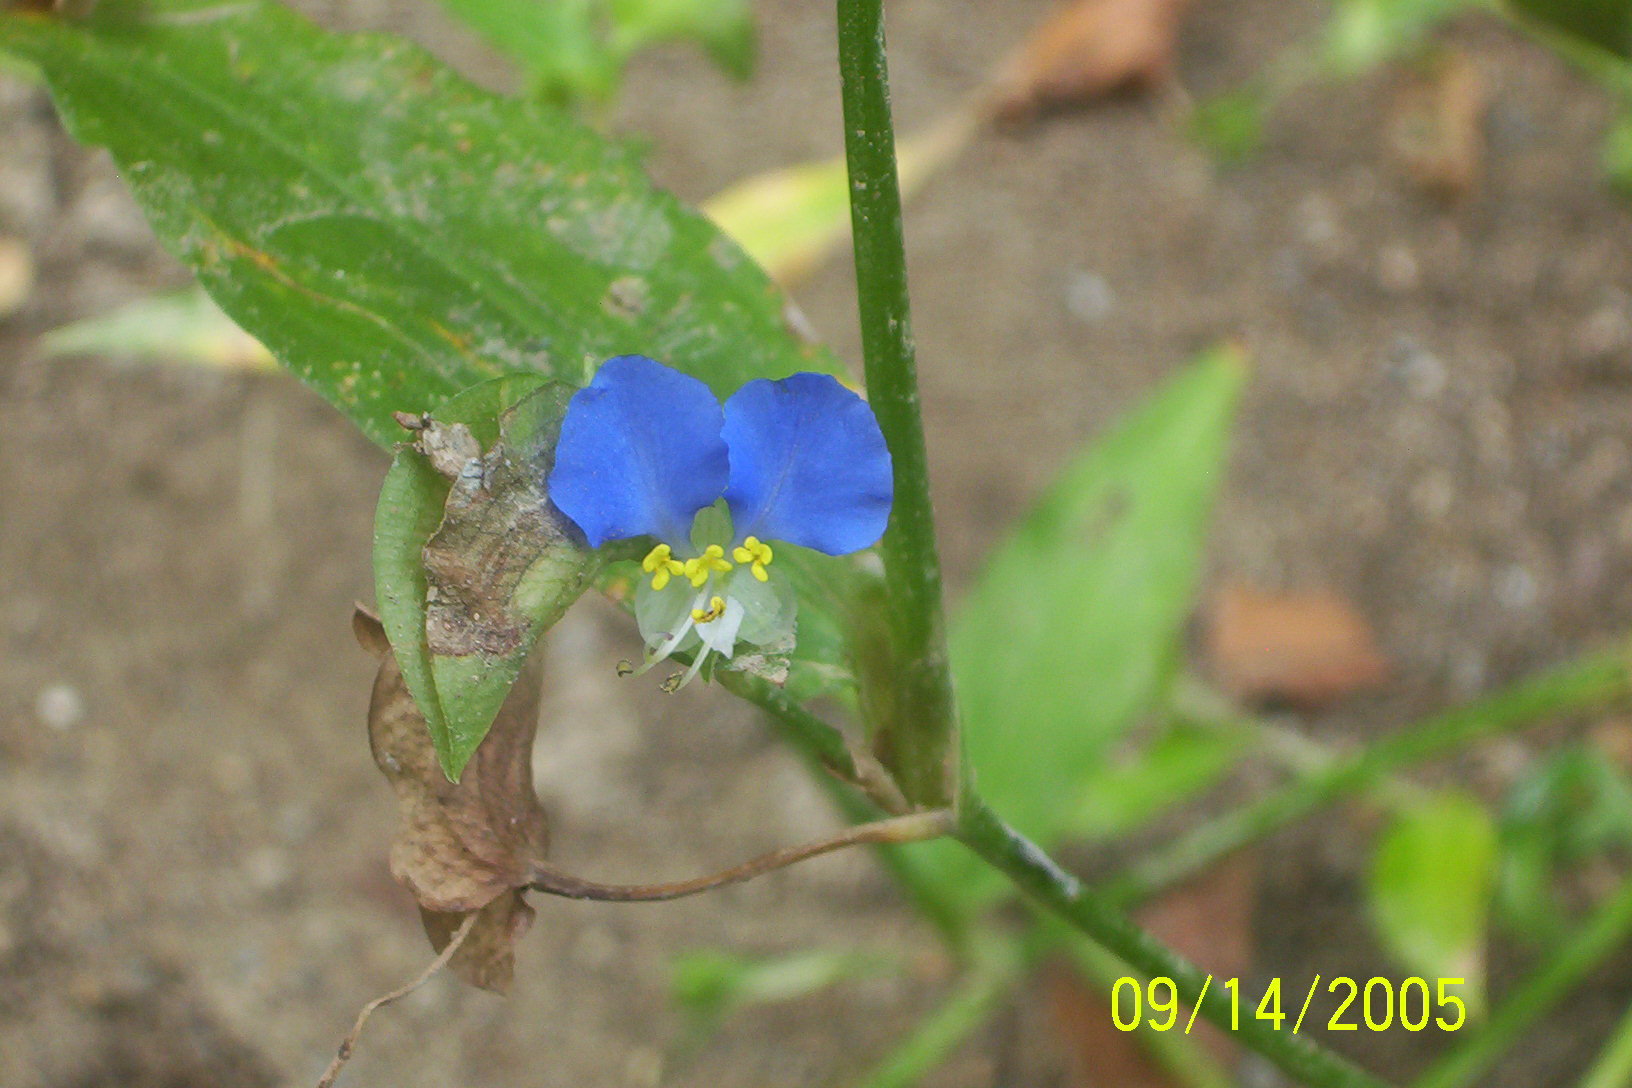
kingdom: Plantae
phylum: Tracheophyta
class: Liliopsida
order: Commelinales
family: Commelinaceae
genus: Commelina
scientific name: Commelina communis
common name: Asiatic dayflower
